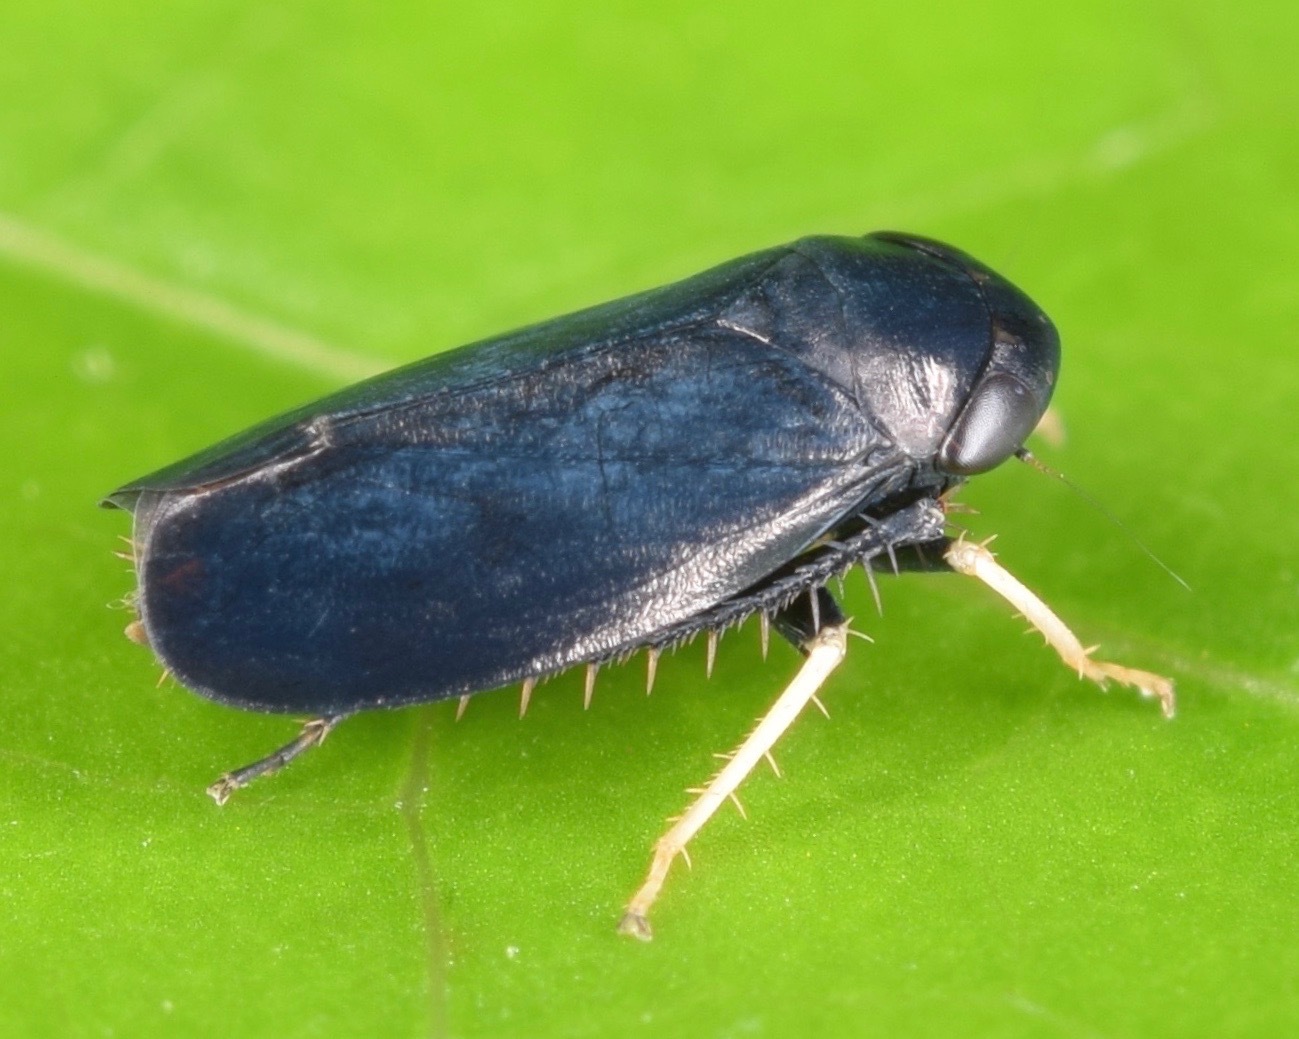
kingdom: Animalia
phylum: Arthropoda
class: Insecta
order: Hemiptera
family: Cicadellidae
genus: Scleroracus
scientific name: Scleroracus anthracinus
